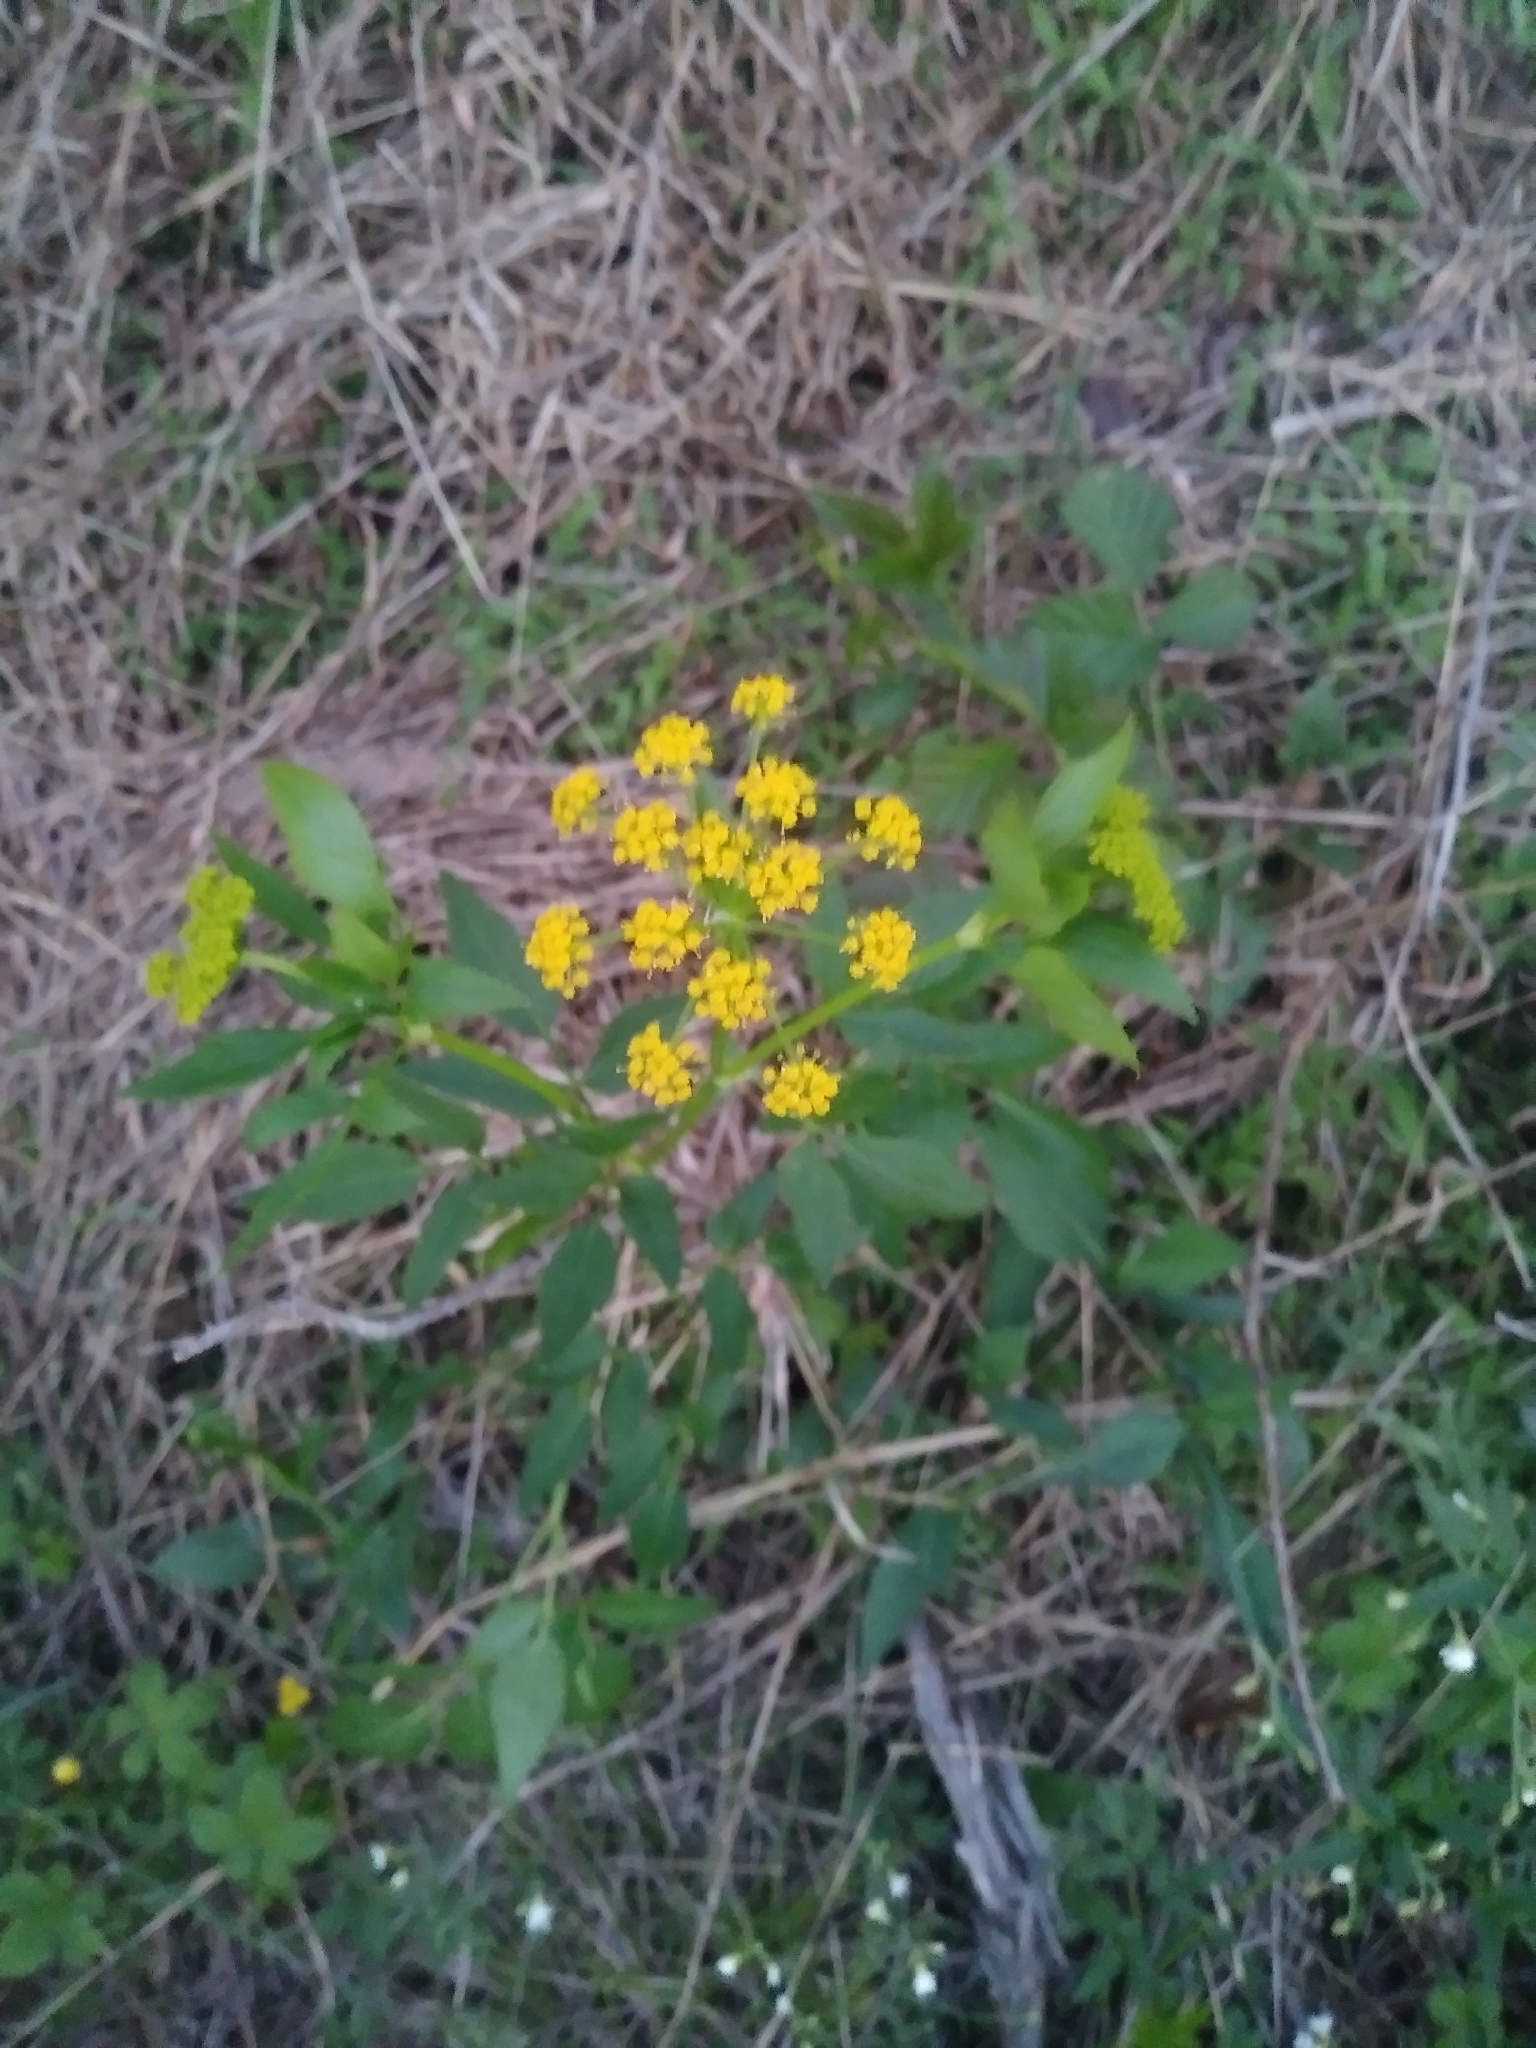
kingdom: Plantae
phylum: Tracheophyta
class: Magnoliopsida
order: Apiales
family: Apiaceae
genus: Zizia
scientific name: Zizia aurea
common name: Golden alexanders
